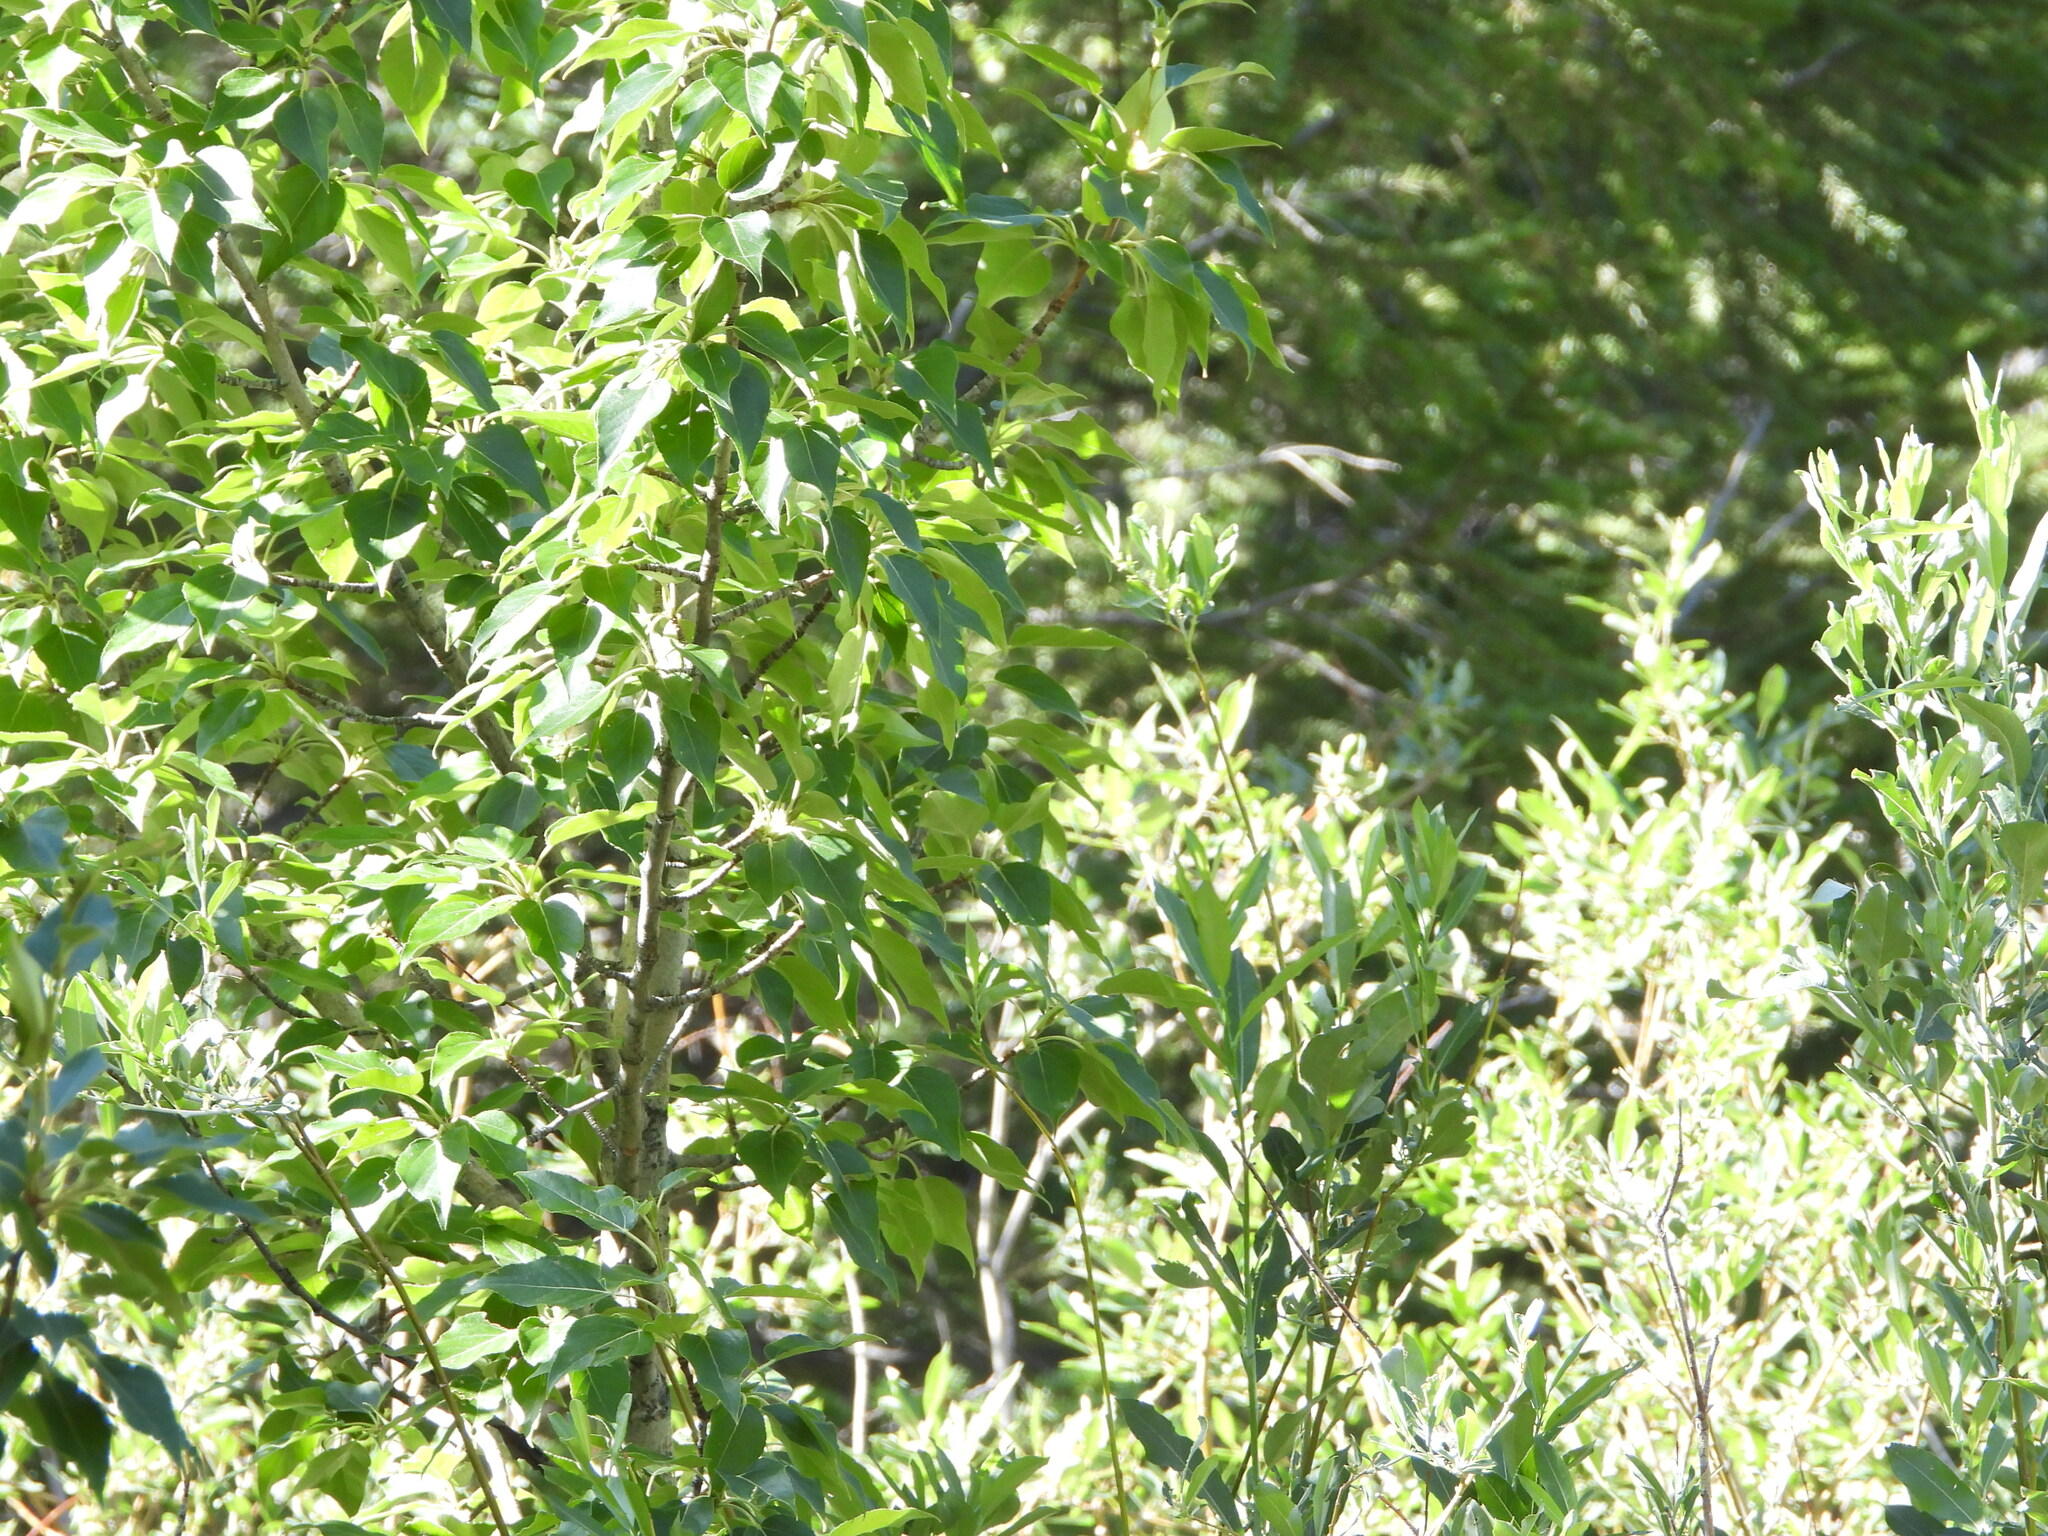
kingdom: Plantae
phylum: Tracheophyta
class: Magnoliopsida
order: Malpighiales
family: Salicaceae
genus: Populus
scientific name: Populus acuminata
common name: Lance-leaved cottonwood
